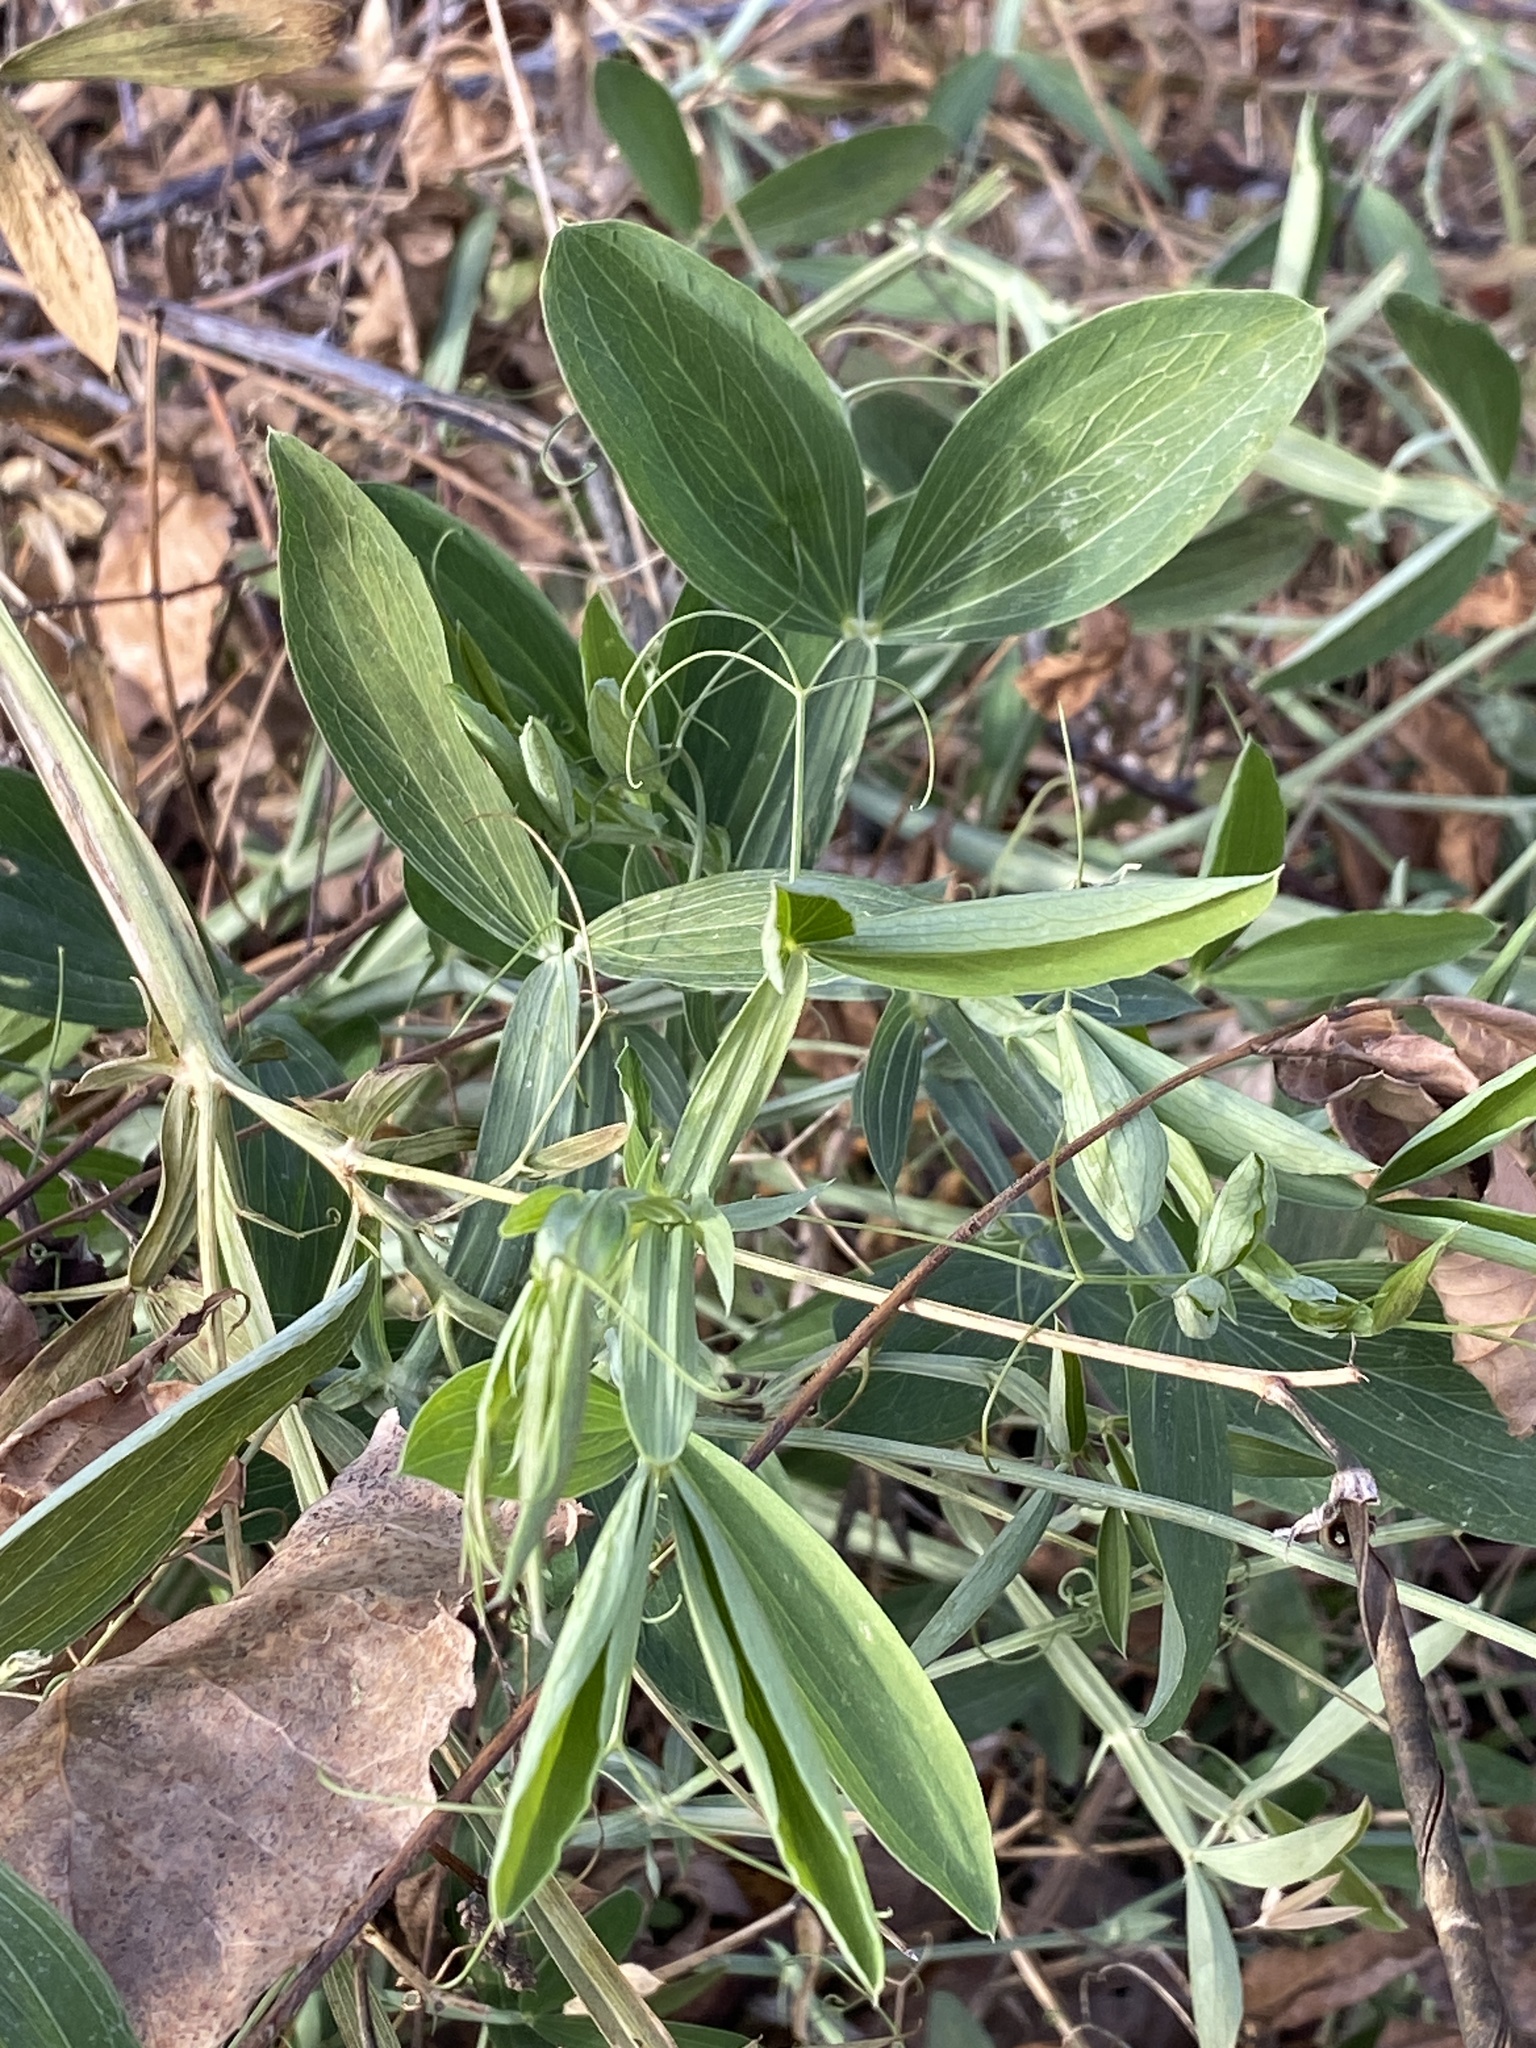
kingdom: Plantae
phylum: Tracheophyta
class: Magnoliopsida
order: Fabales
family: Fabaceae
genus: Lathyrus
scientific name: Lathyrus latifolius
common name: Perennial pea
